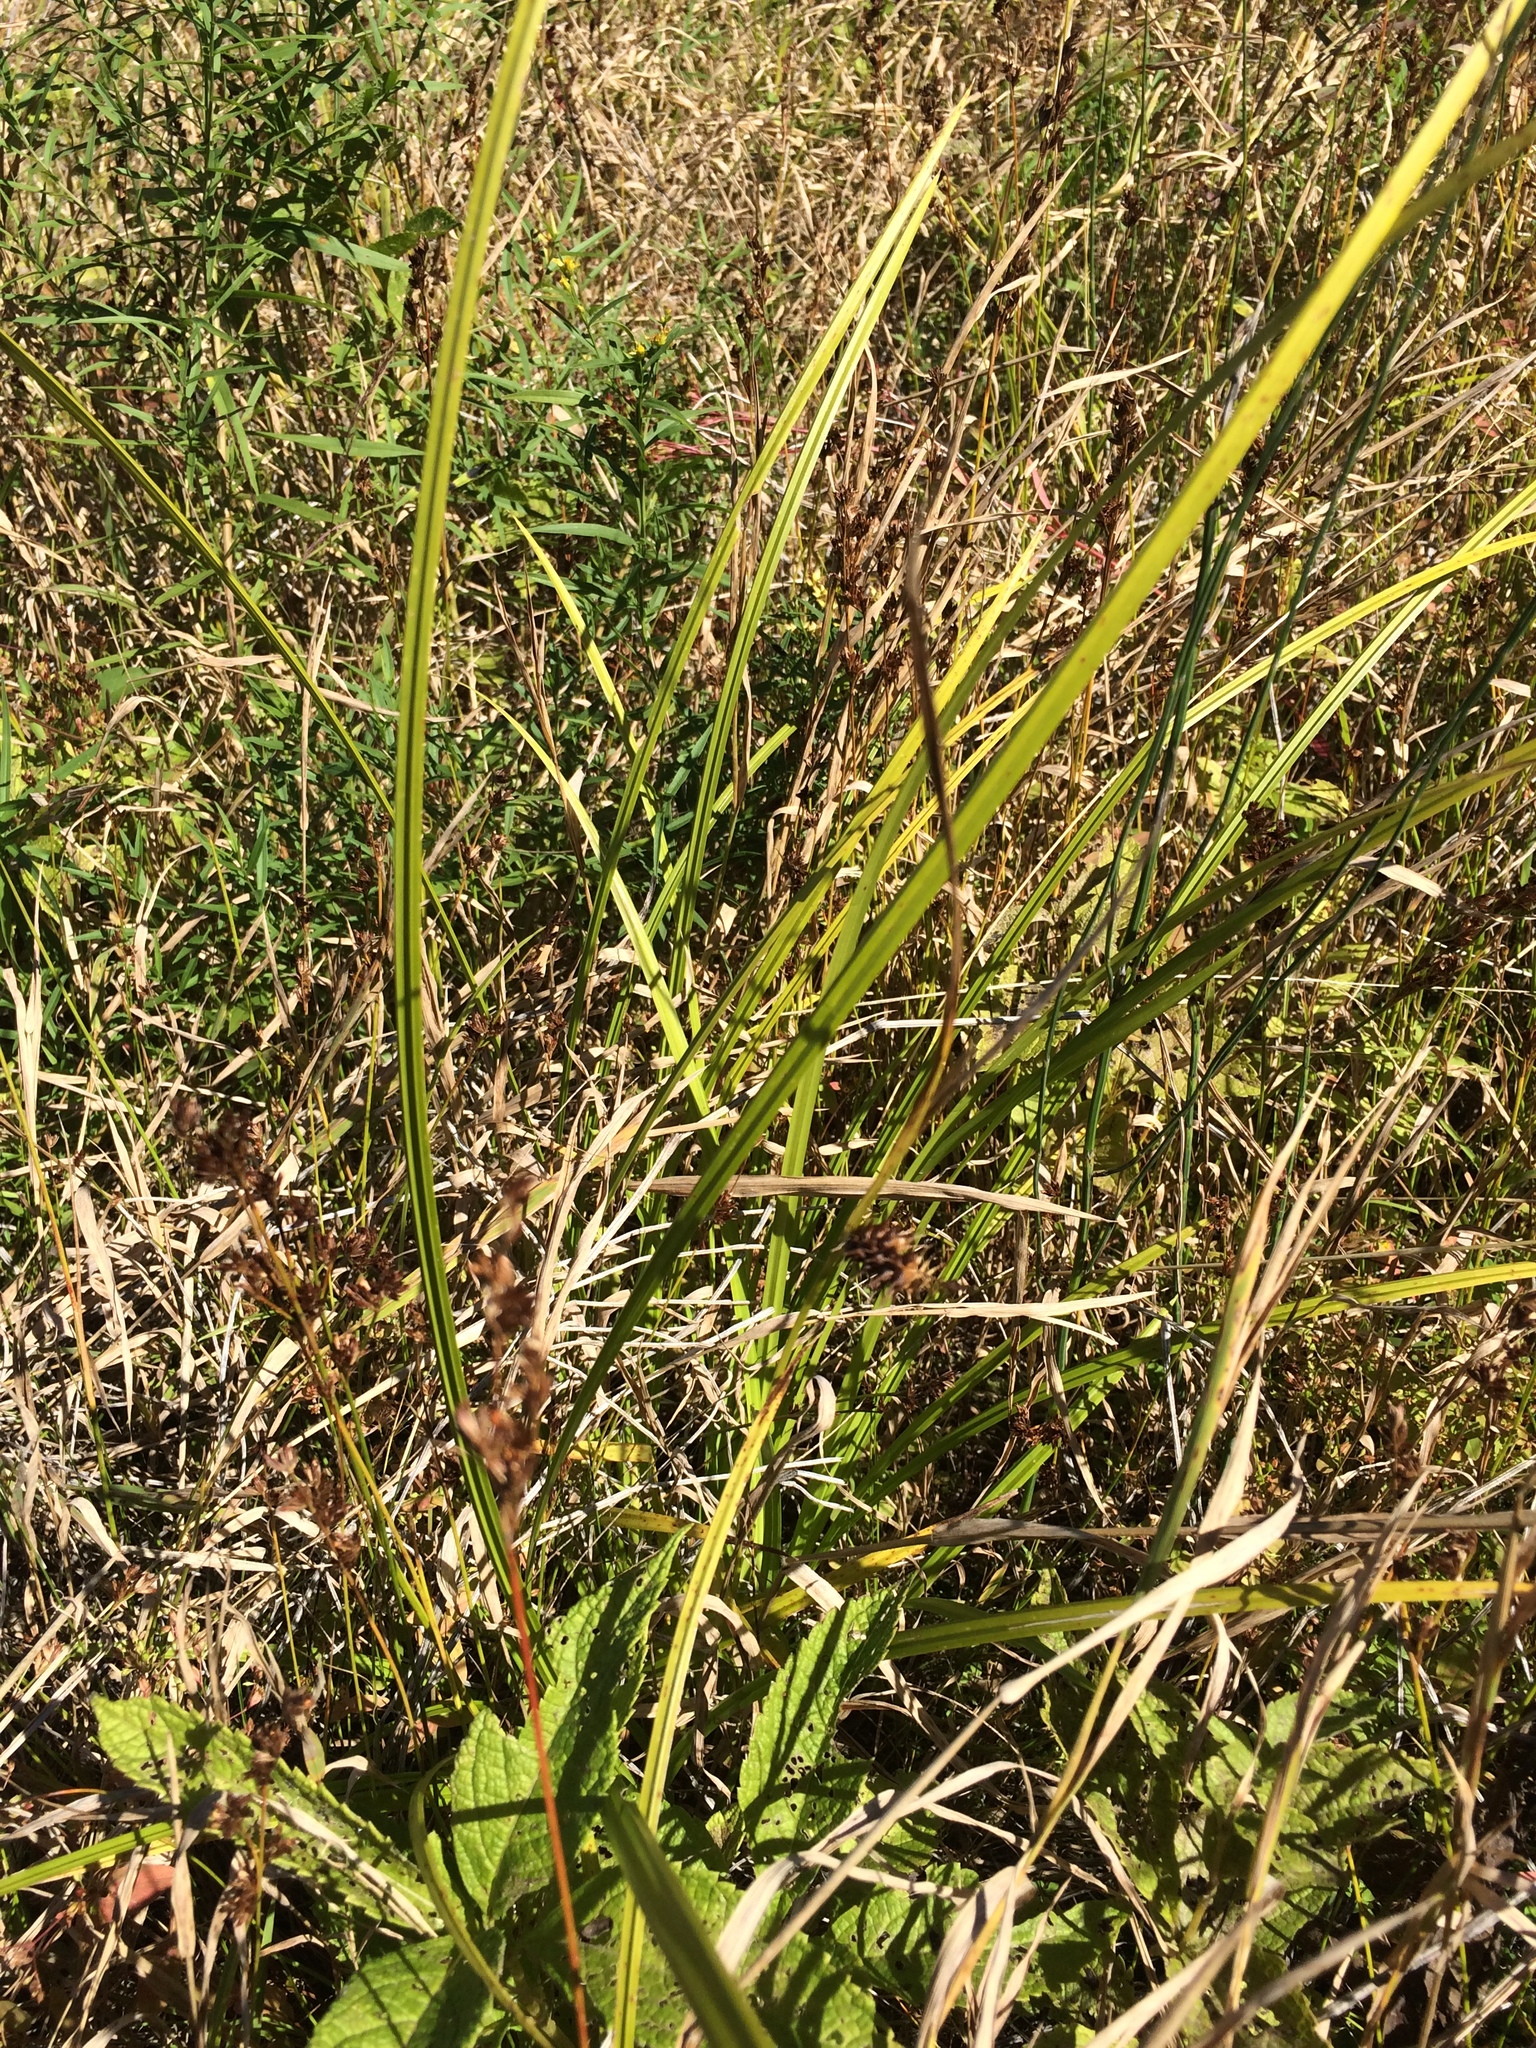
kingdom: Plantae
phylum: Tracheophyta
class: Liliopsida
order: Poales
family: Cyperaceae
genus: Carex
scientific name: Carex lurida
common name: Sallow sedge
